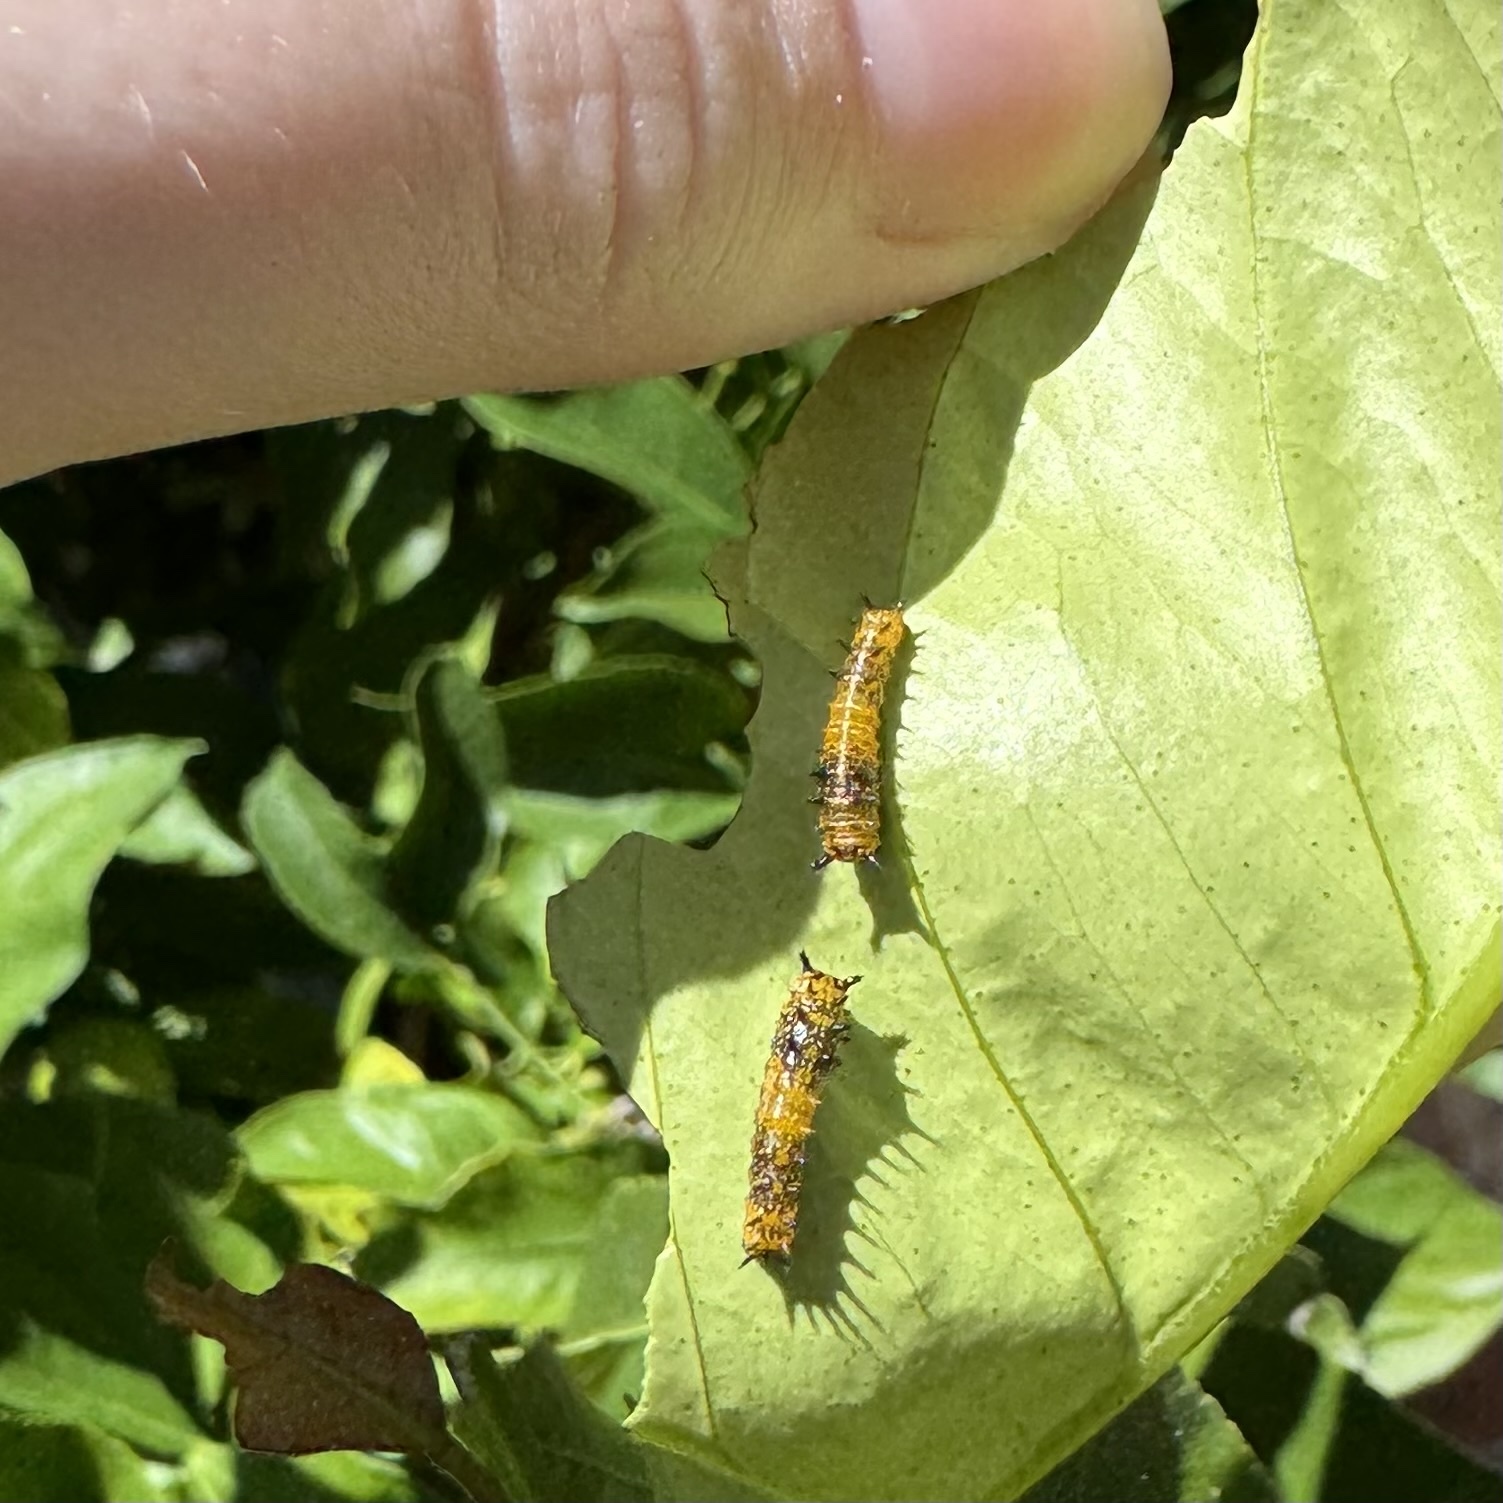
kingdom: Animalia
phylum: Arthropoda
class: Insecta
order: Lepidoptera
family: Papilionidae
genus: Papilio
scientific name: Papilio anactus
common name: Dingy swallowtail
